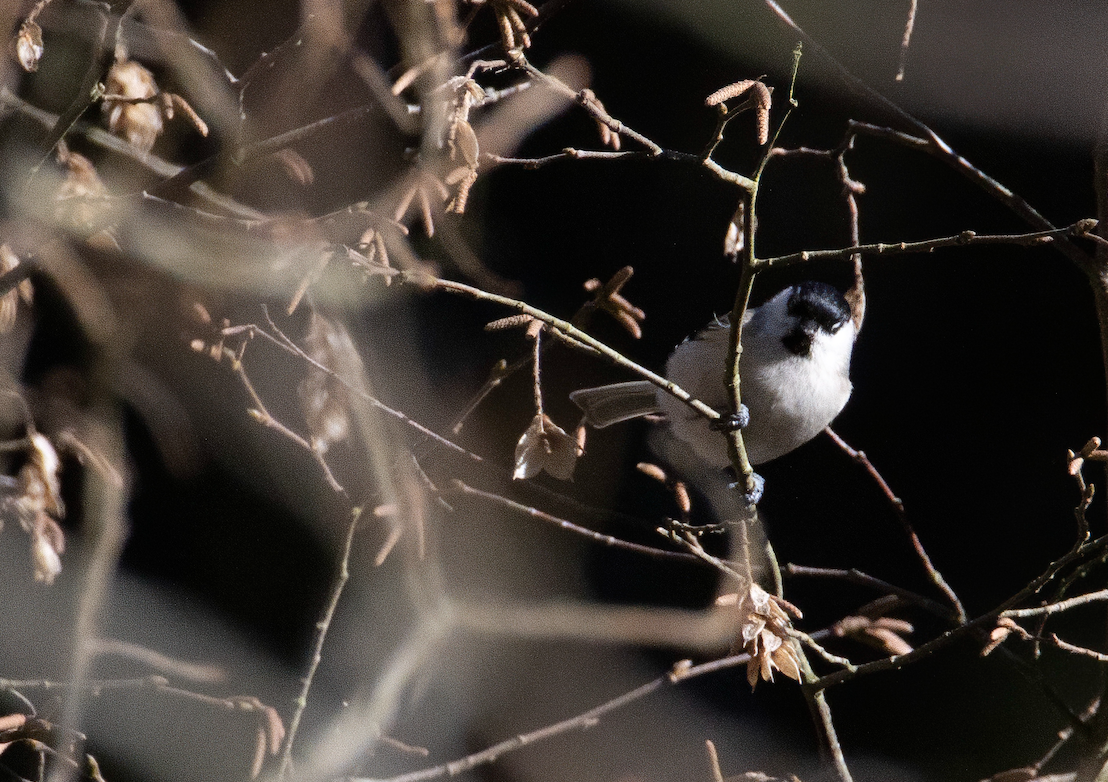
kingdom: Animalia
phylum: Chordata
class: Aves
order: Passeriformes
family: Paridae
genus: Poecile
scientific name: Poecile palustris
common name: Marsh tit
